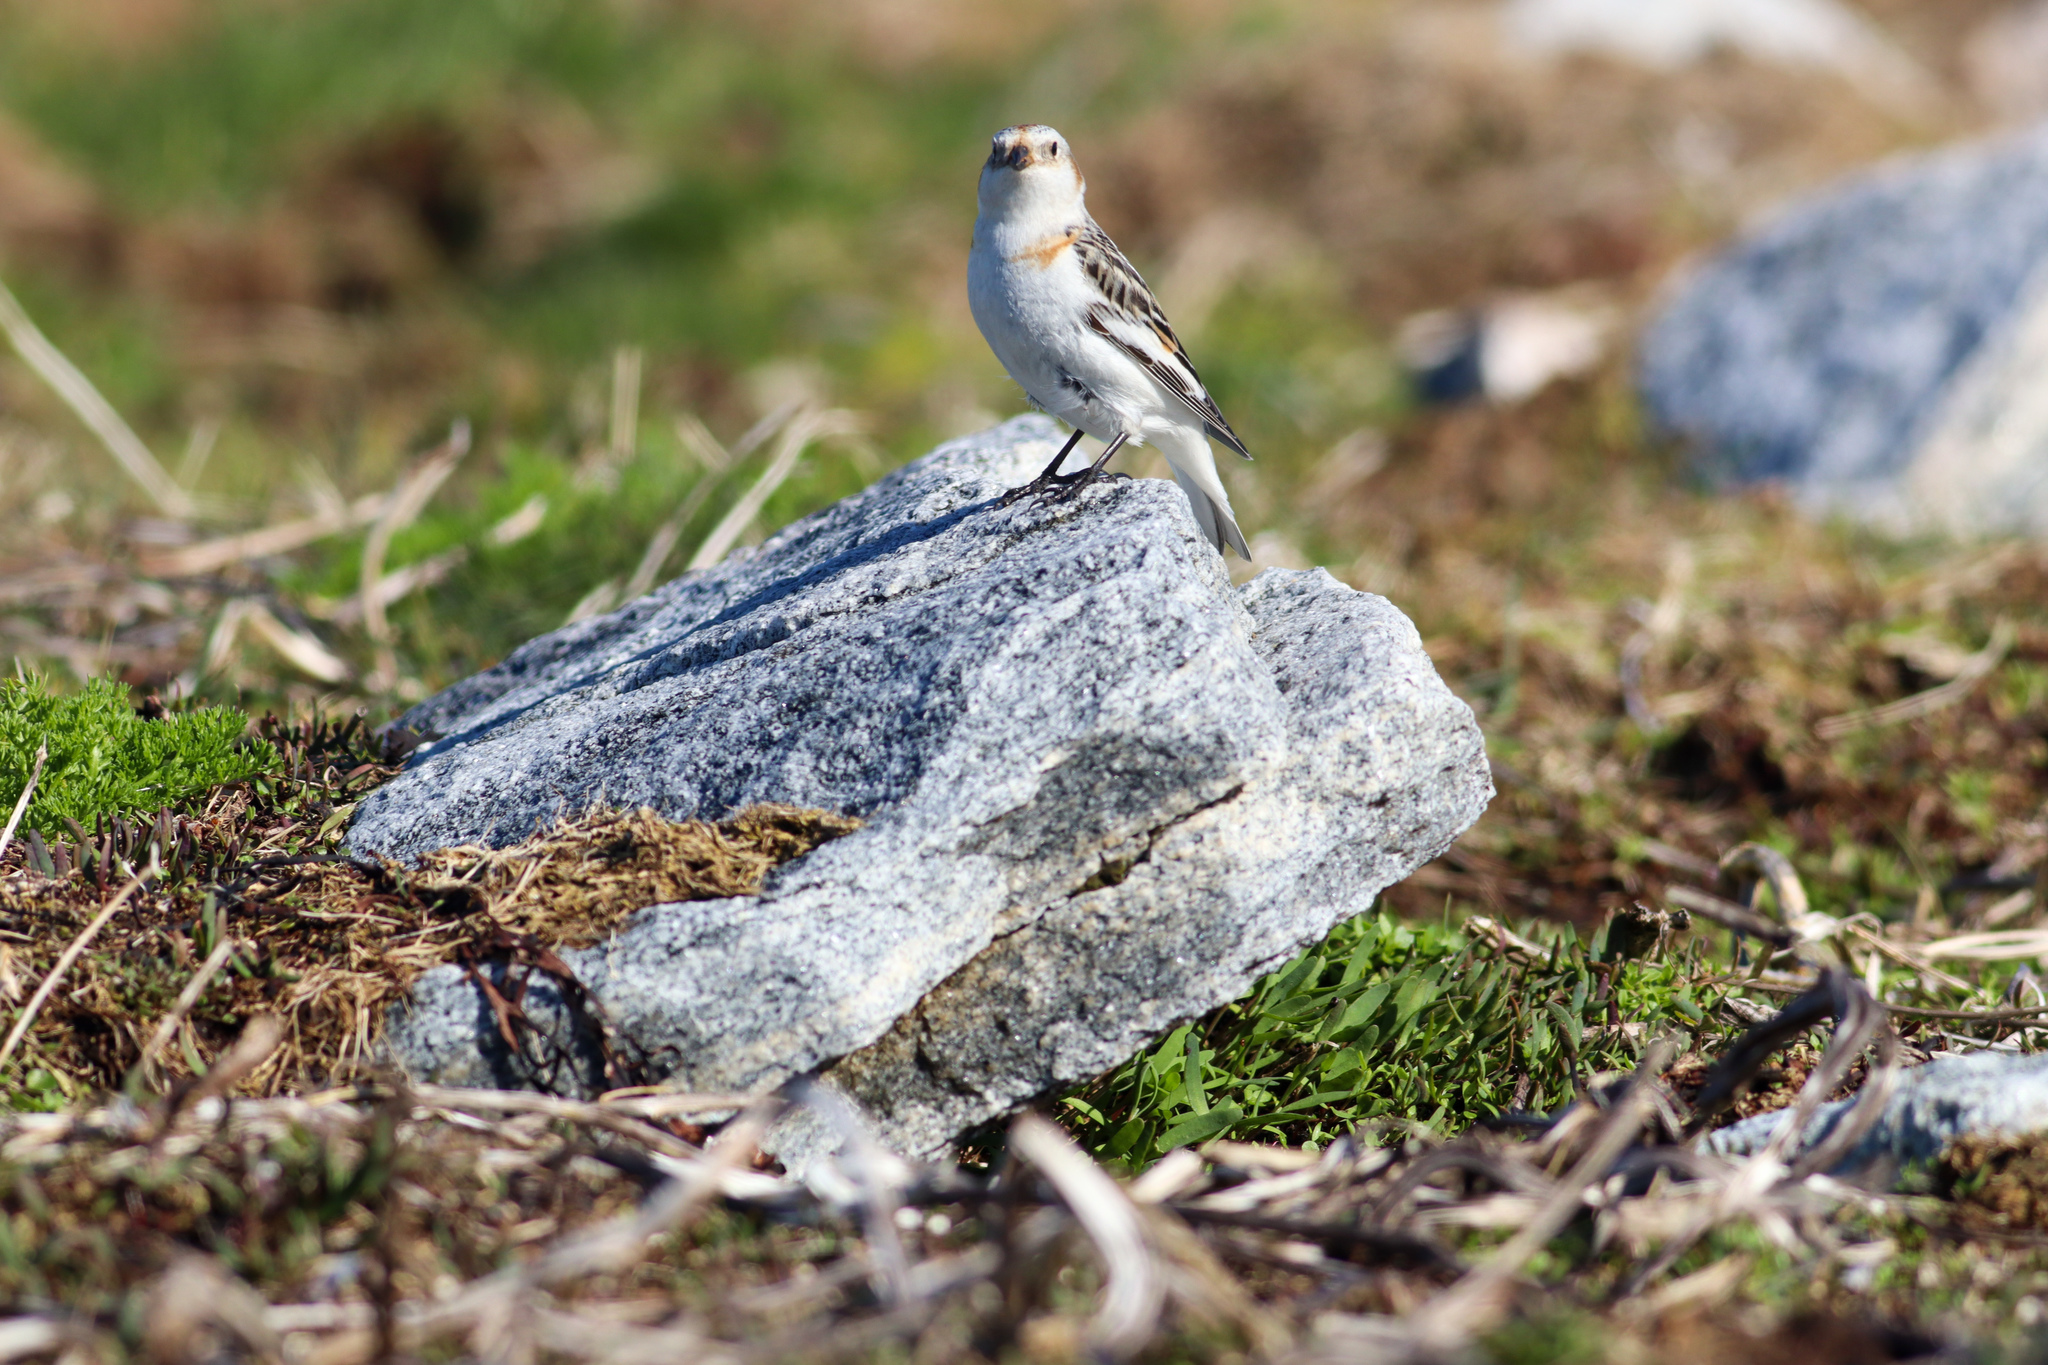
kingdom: Animalia
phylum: Chordata
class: Aves
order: Passeriformes
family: Calcariidae
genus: Plectrophenax
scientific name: Plectrophenax nivalis
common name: Snow bunting
